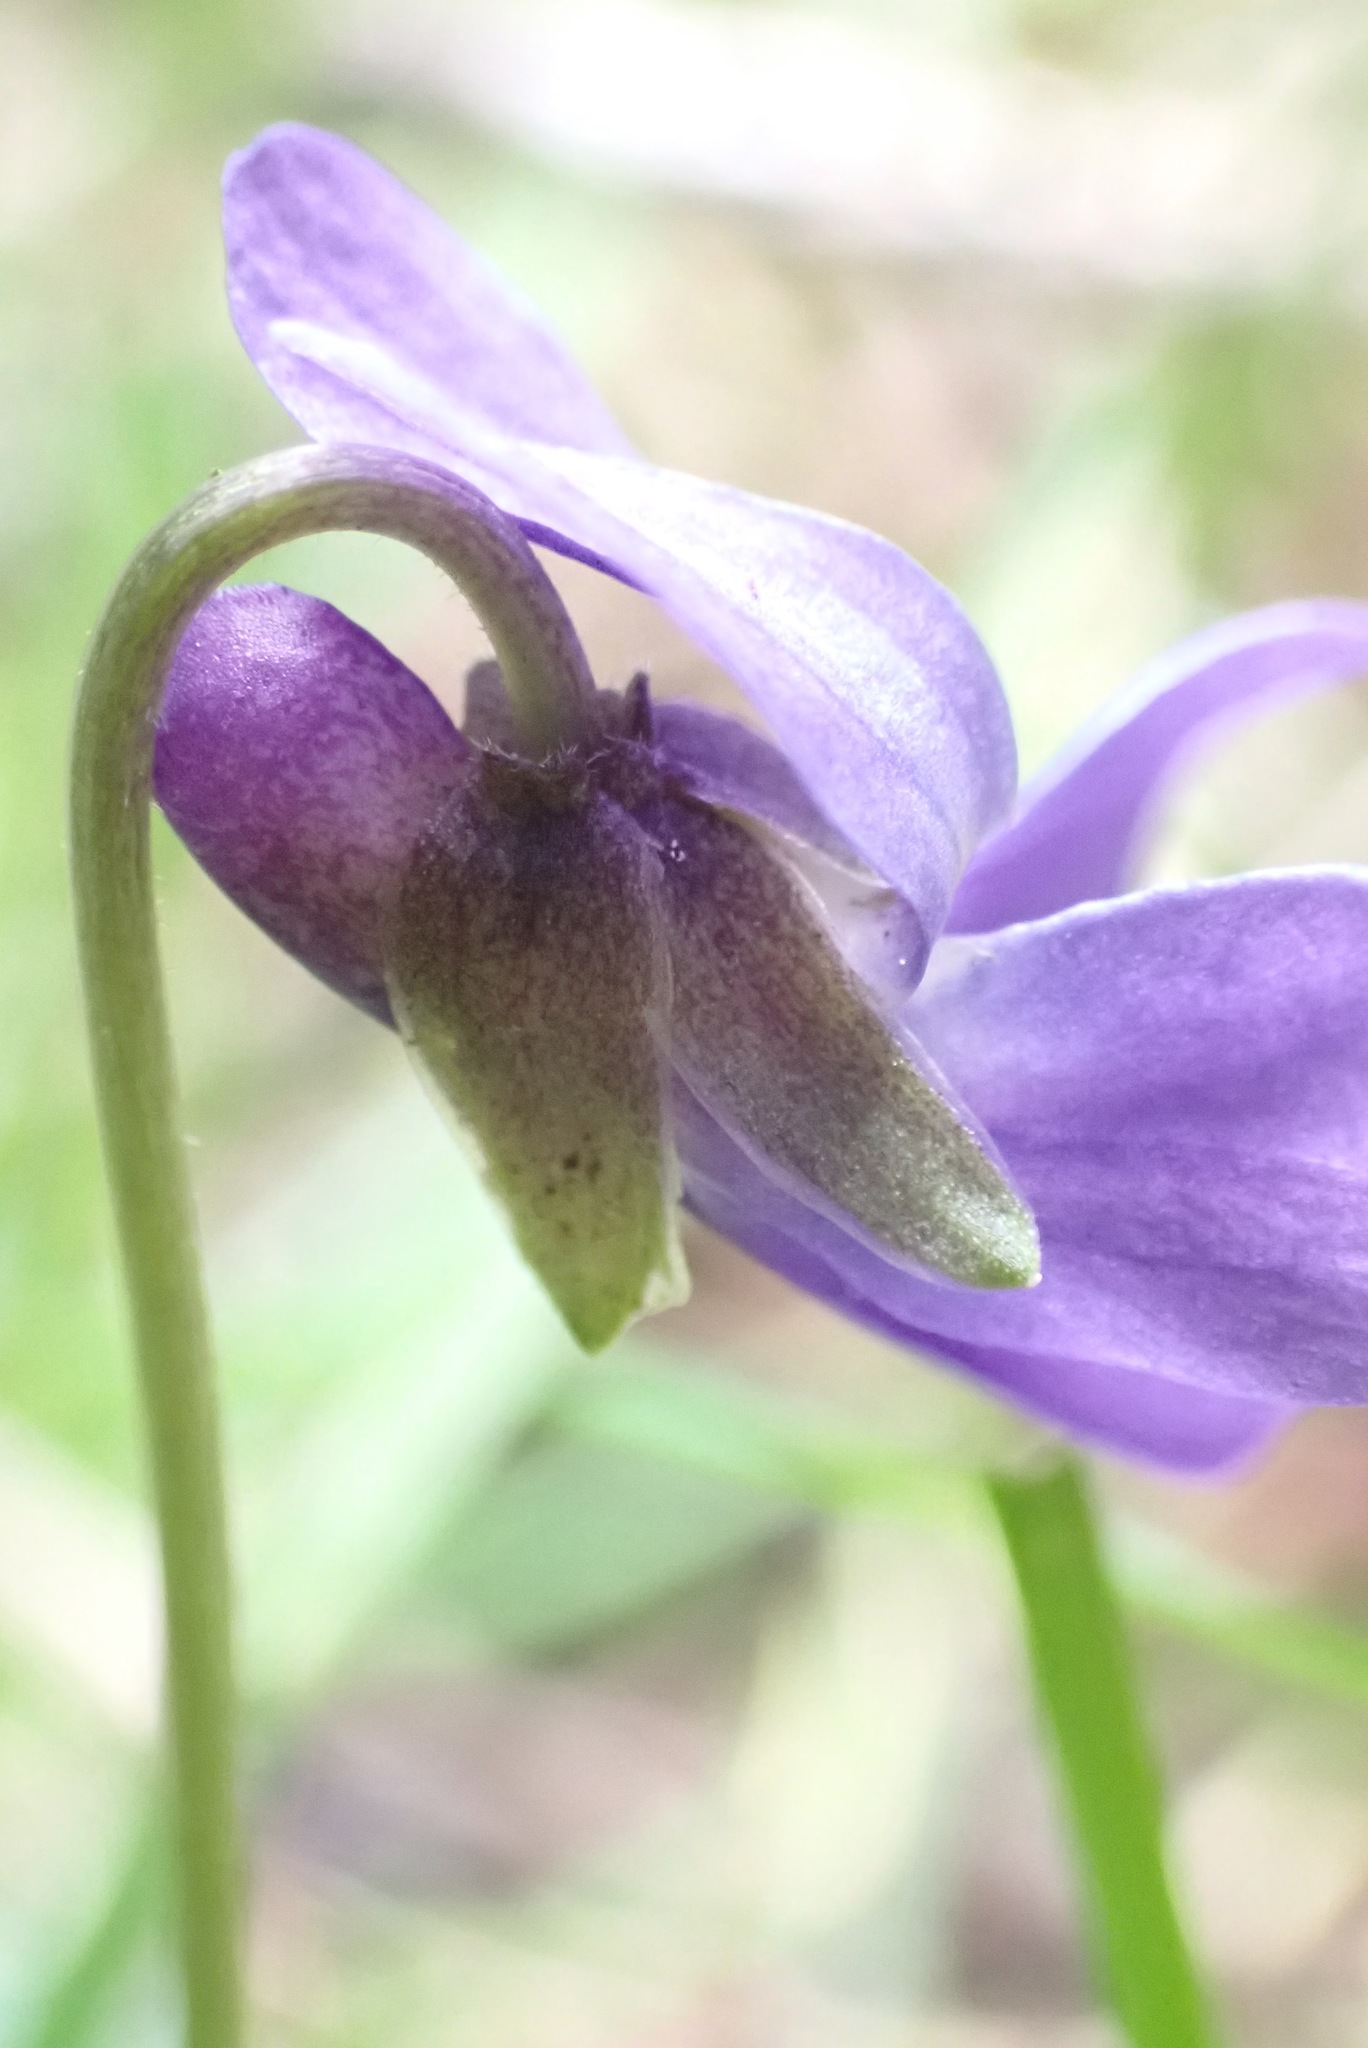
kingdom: Plantae
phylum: Tracheophyta
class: Magnoliopsida
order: Malpighiales
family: Violaceae
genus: Viola
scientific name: Viola odorata
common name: Sweet violet
